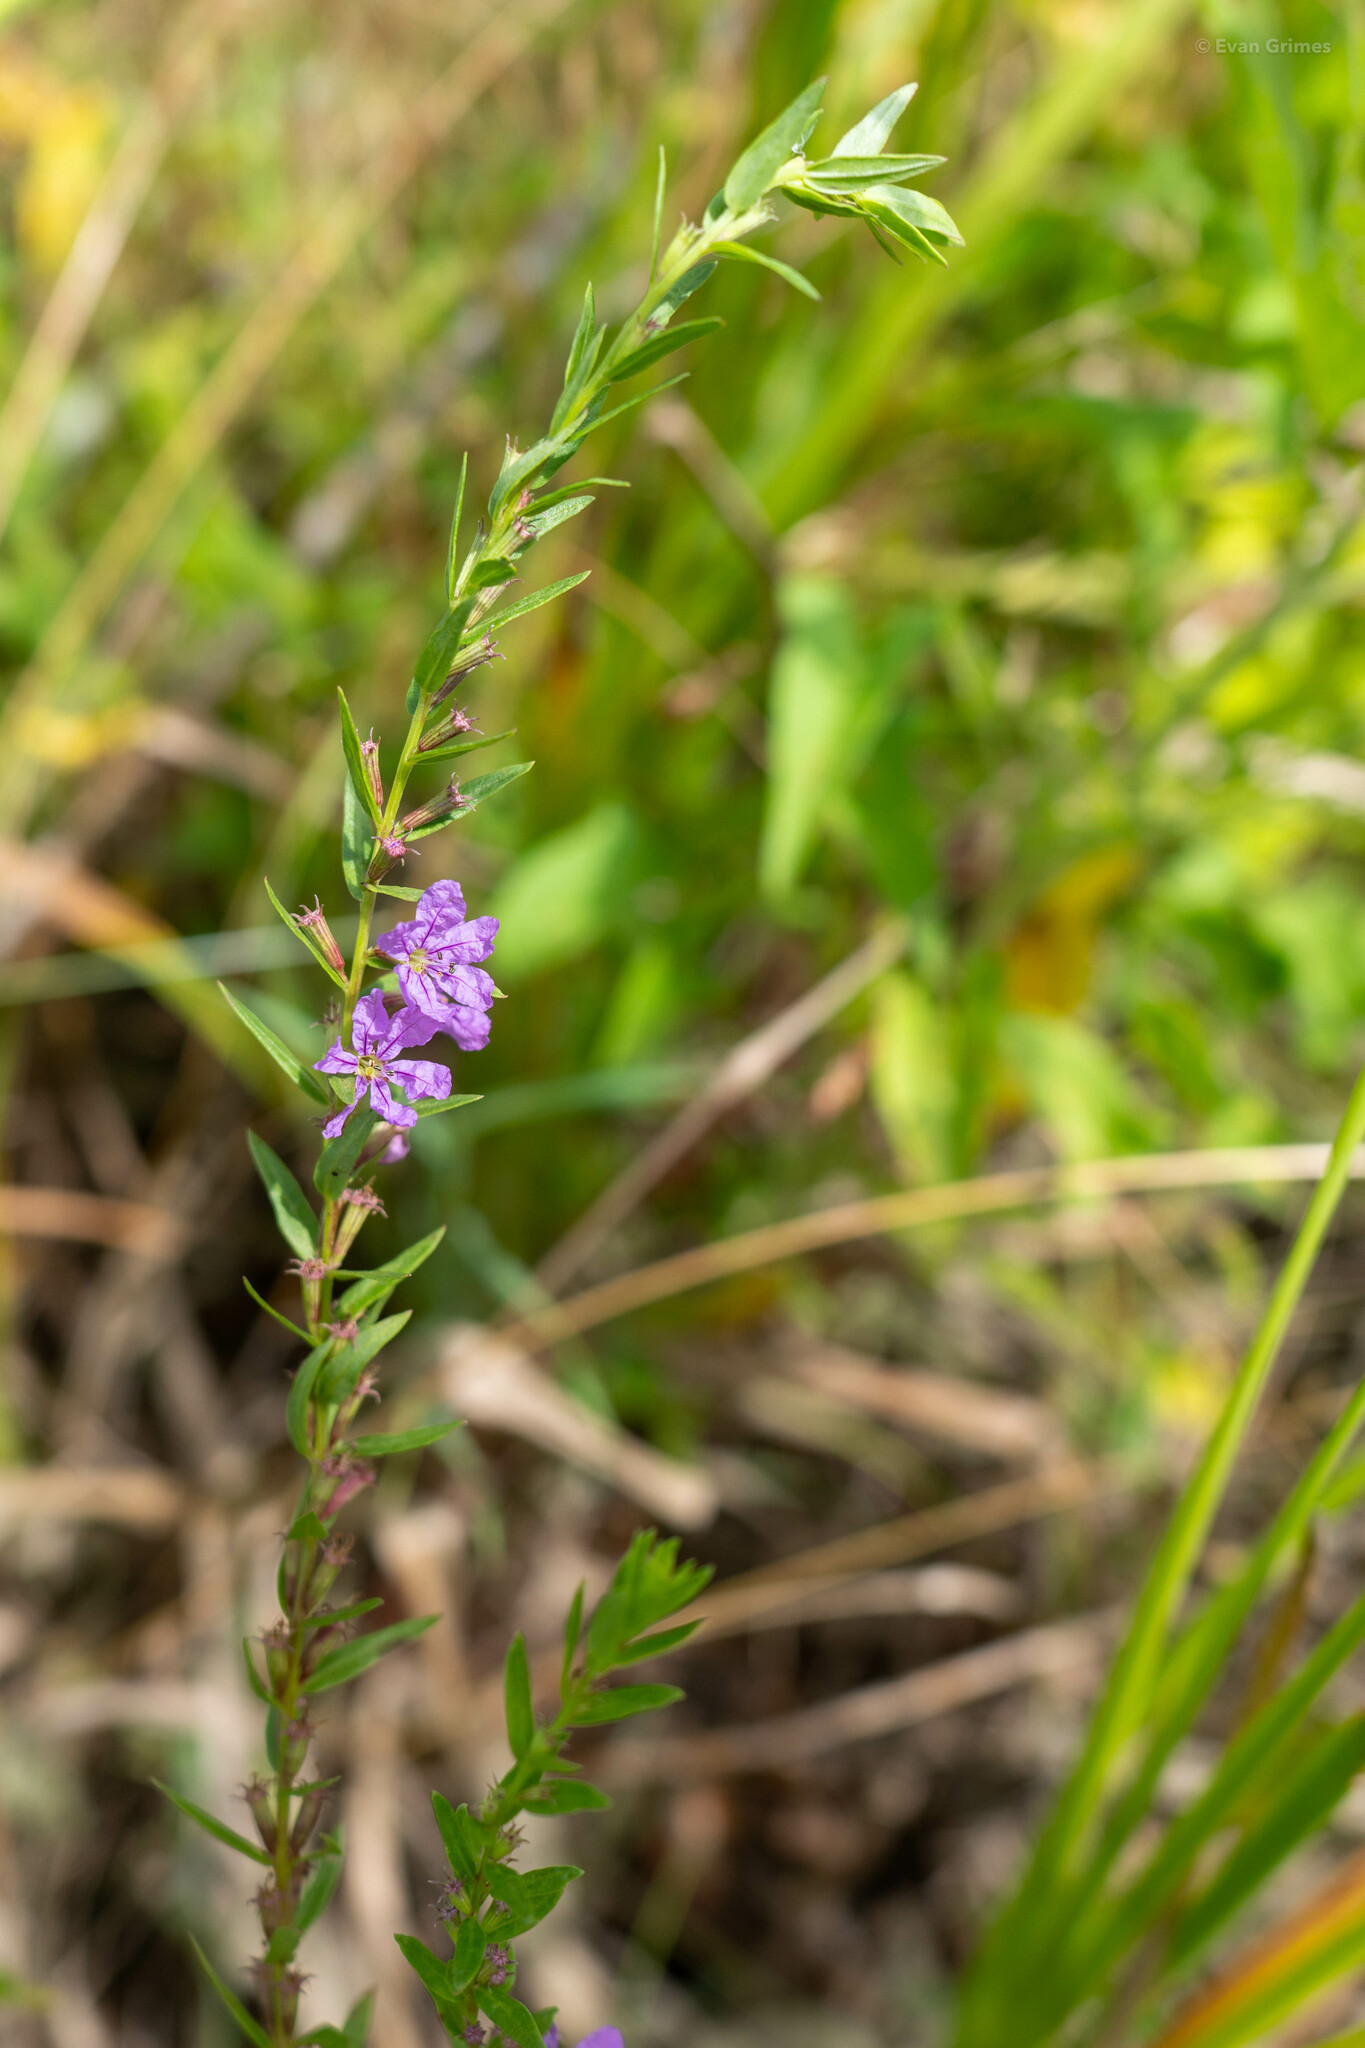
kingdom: Plantae
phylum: Tracheophyta
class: Magnoliopsida
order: Myrtales
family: Lythraceae
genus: Lythrum
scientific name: Lythrum alatum
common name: Winged loosestrife
